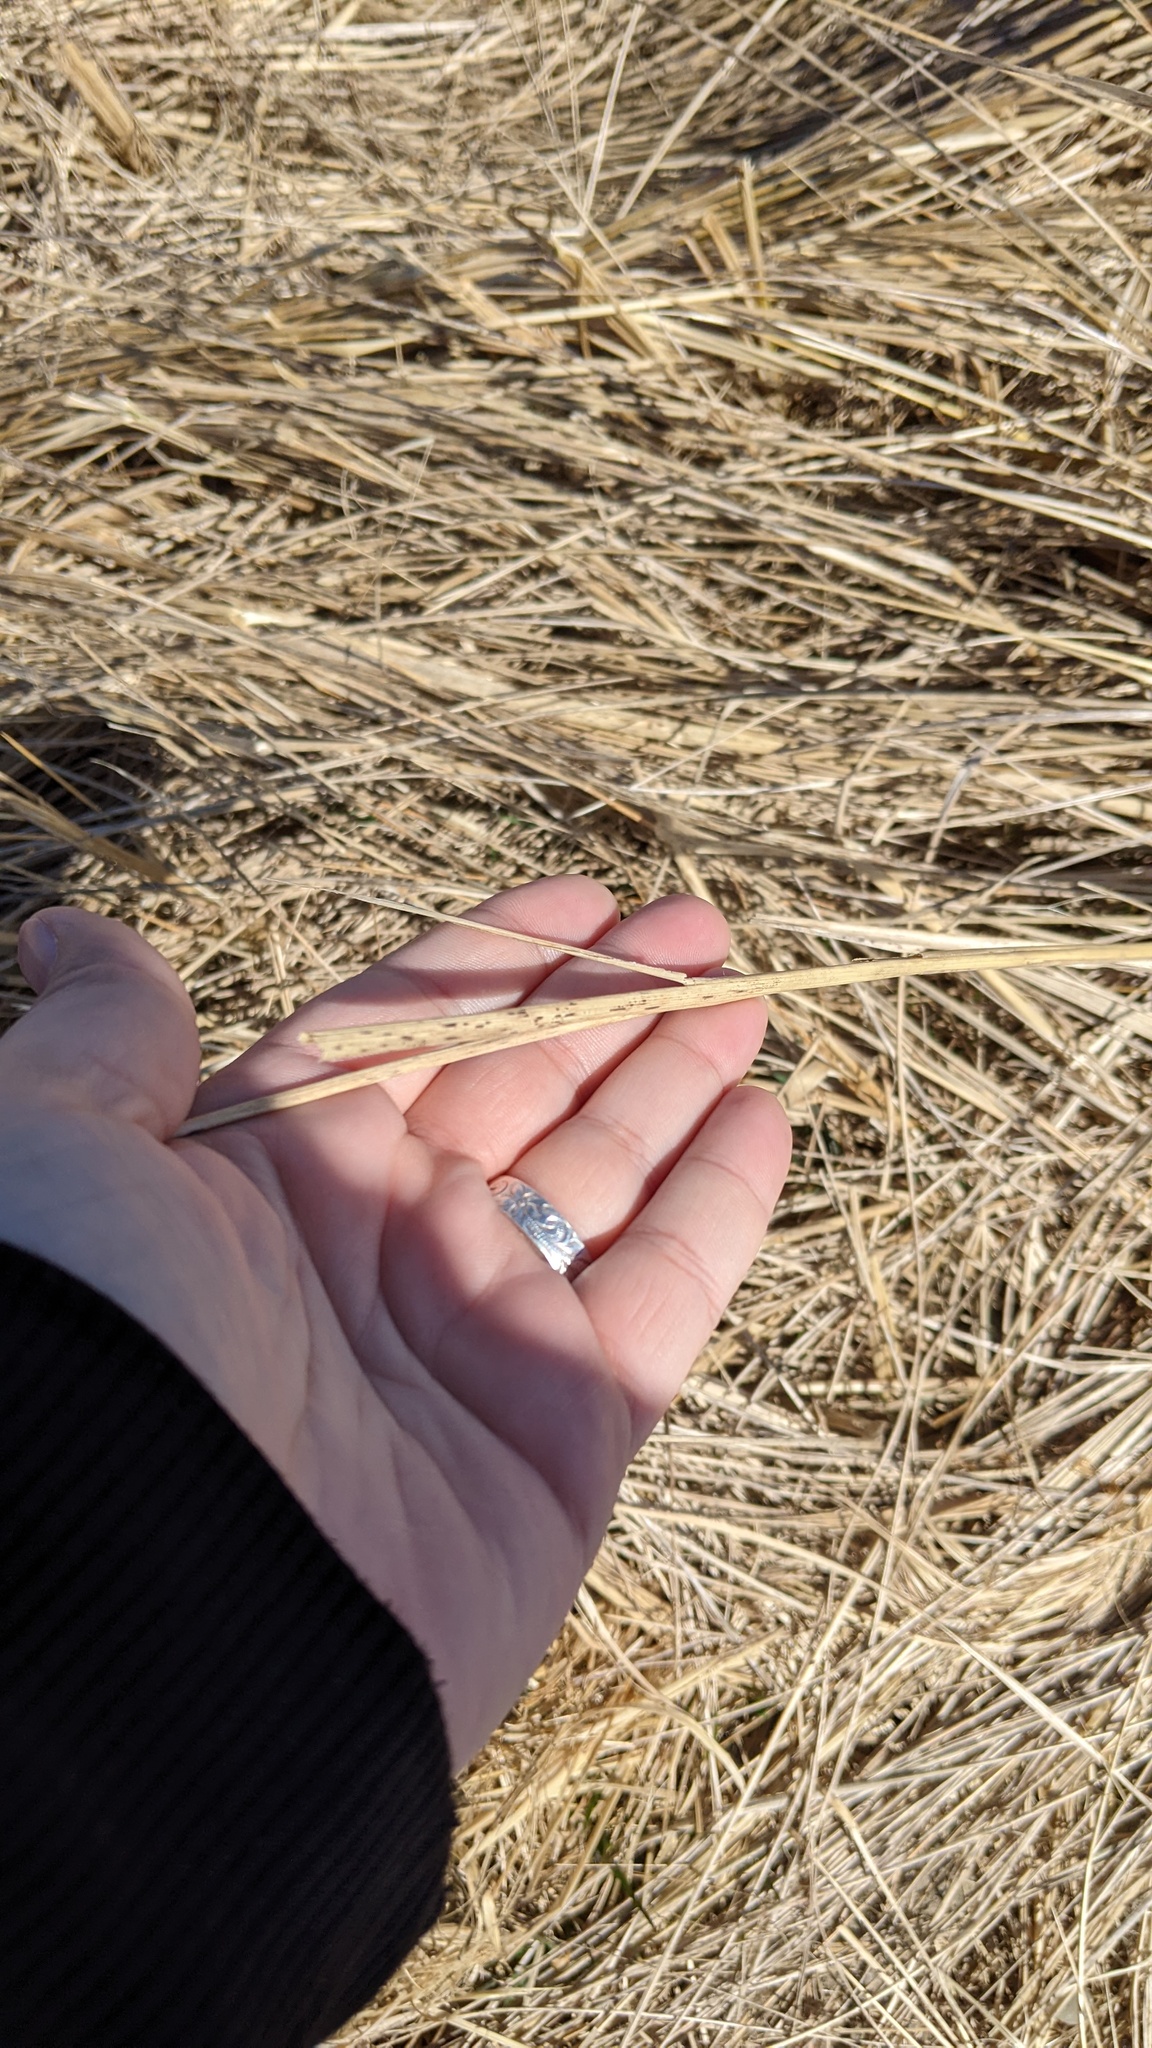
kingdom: Plantae
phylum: Tracheophyta
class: Liliopsida
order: Poales
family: Poaceae
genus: Calamagrostis
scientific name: Calamagrostis breviligulata
